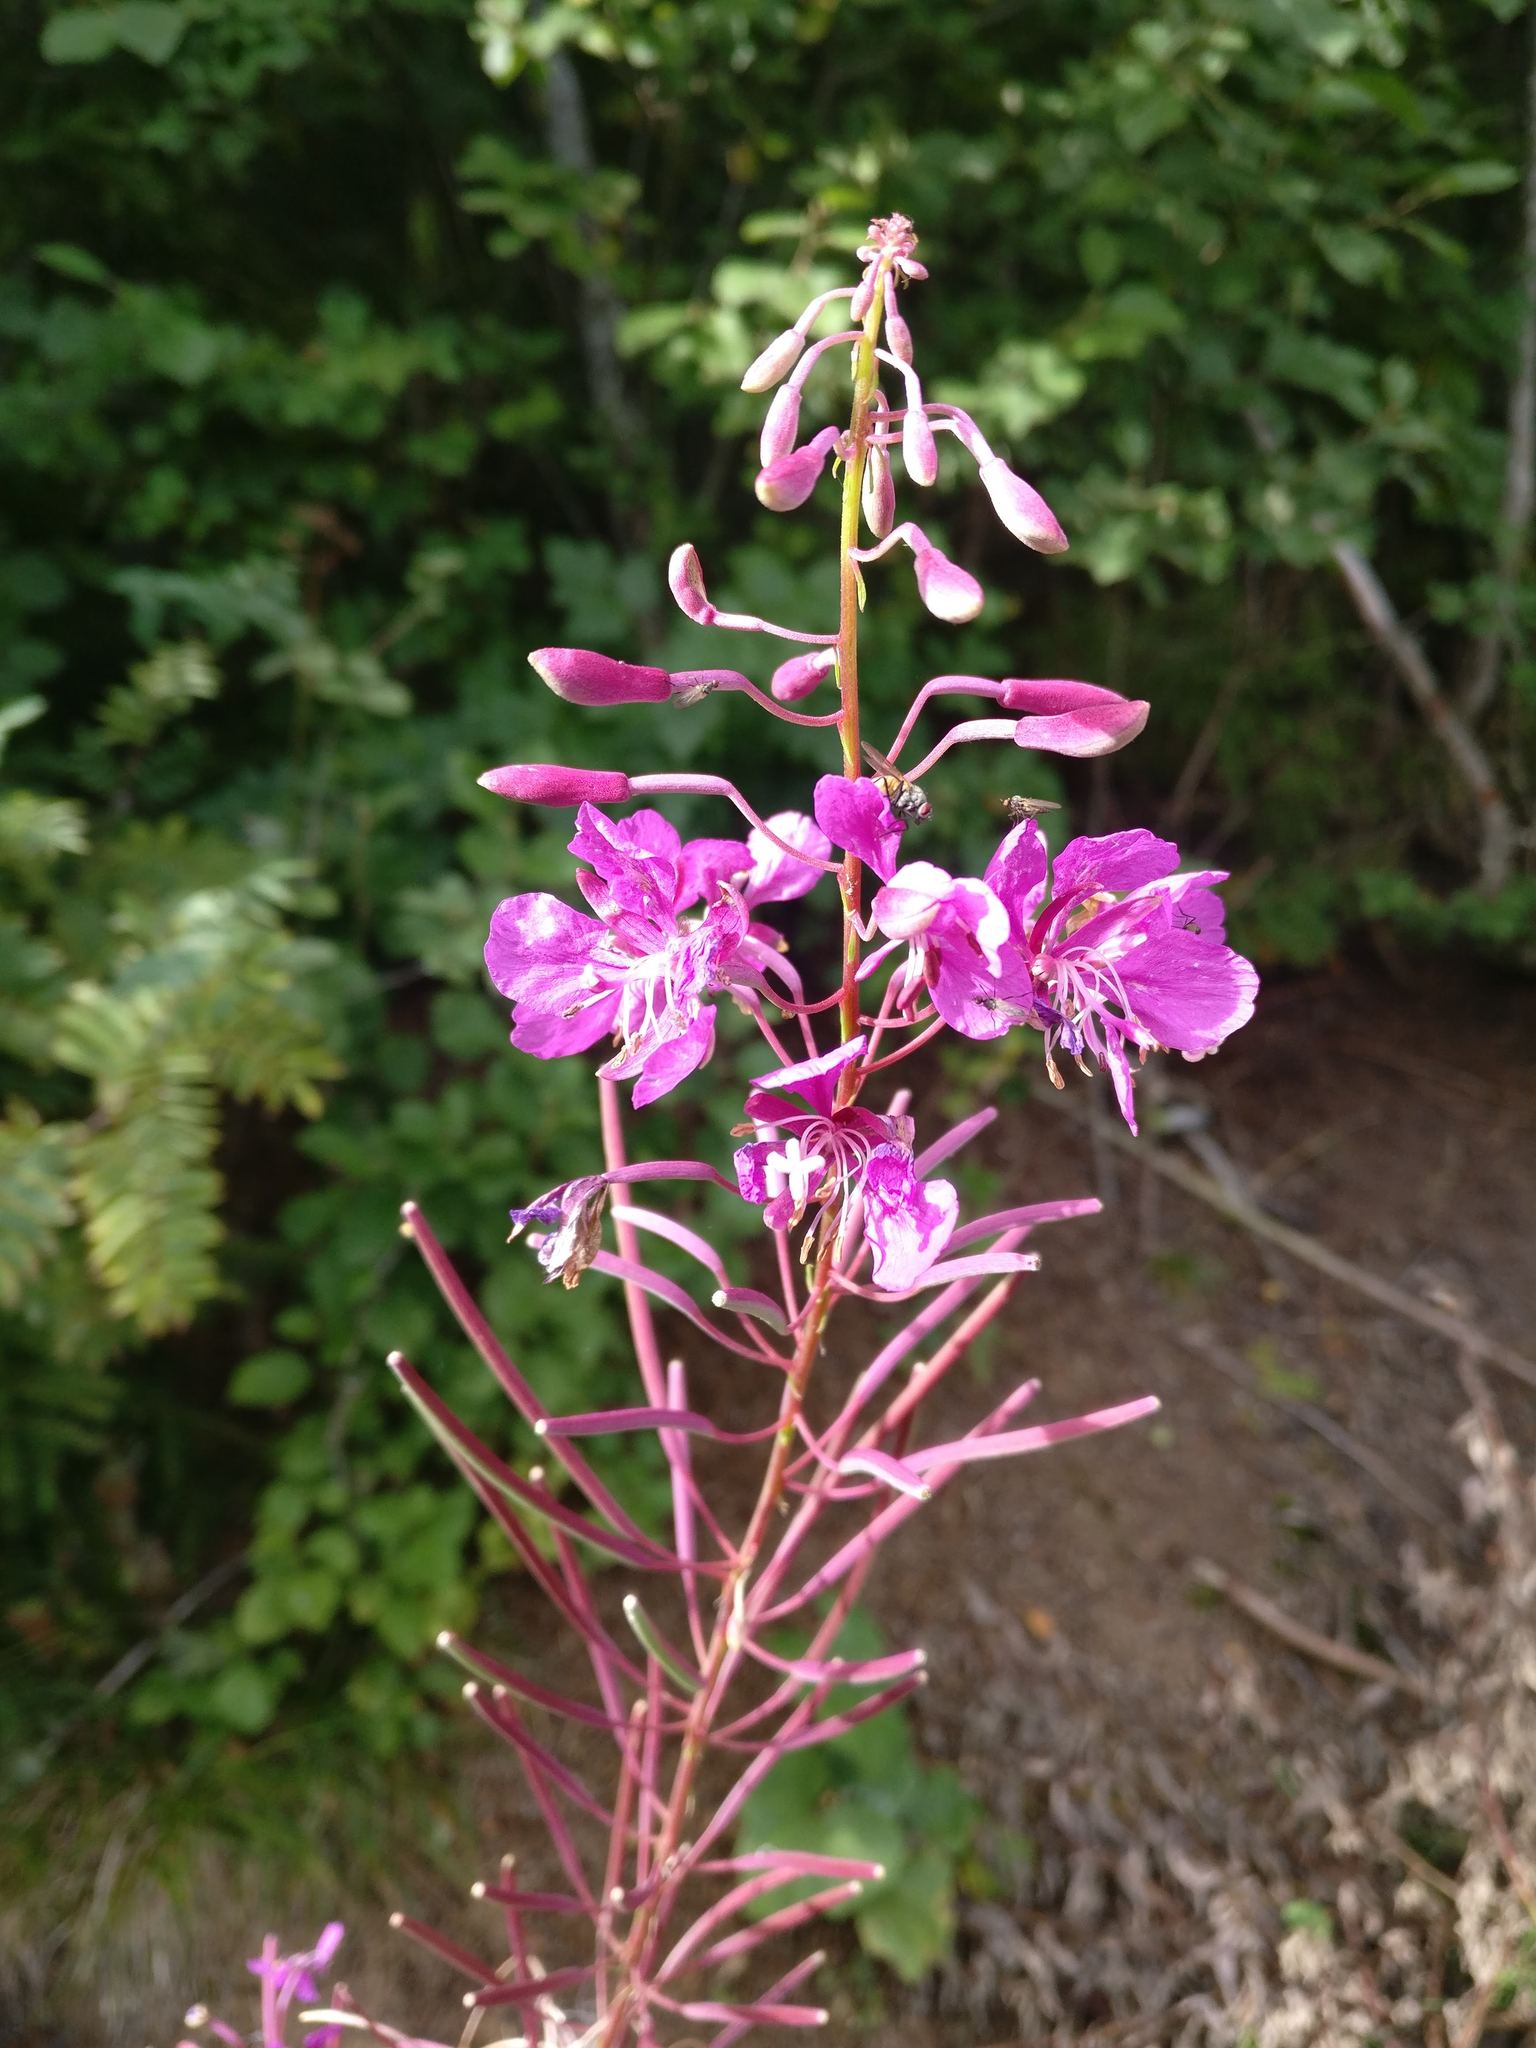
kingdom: Plantae
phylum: Tracheophyta
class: Magnoliopsida
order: Myrtales
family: Onagraceae
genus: Chamaenerion
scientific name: Chamaenerion angustifolium
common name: Fireweed
